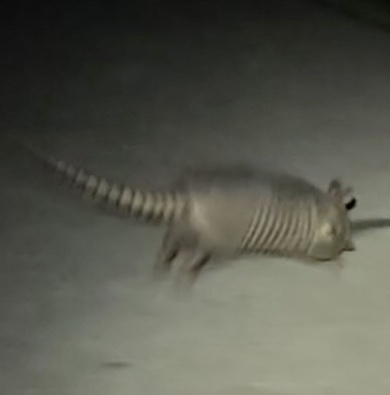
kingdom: Animalia
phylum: Chordata
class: Mammalia
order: Cingulata
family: Dasypodidae
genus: Dasypus
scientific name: Dasypus novemcinctus
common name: Nine-banded armadillo
